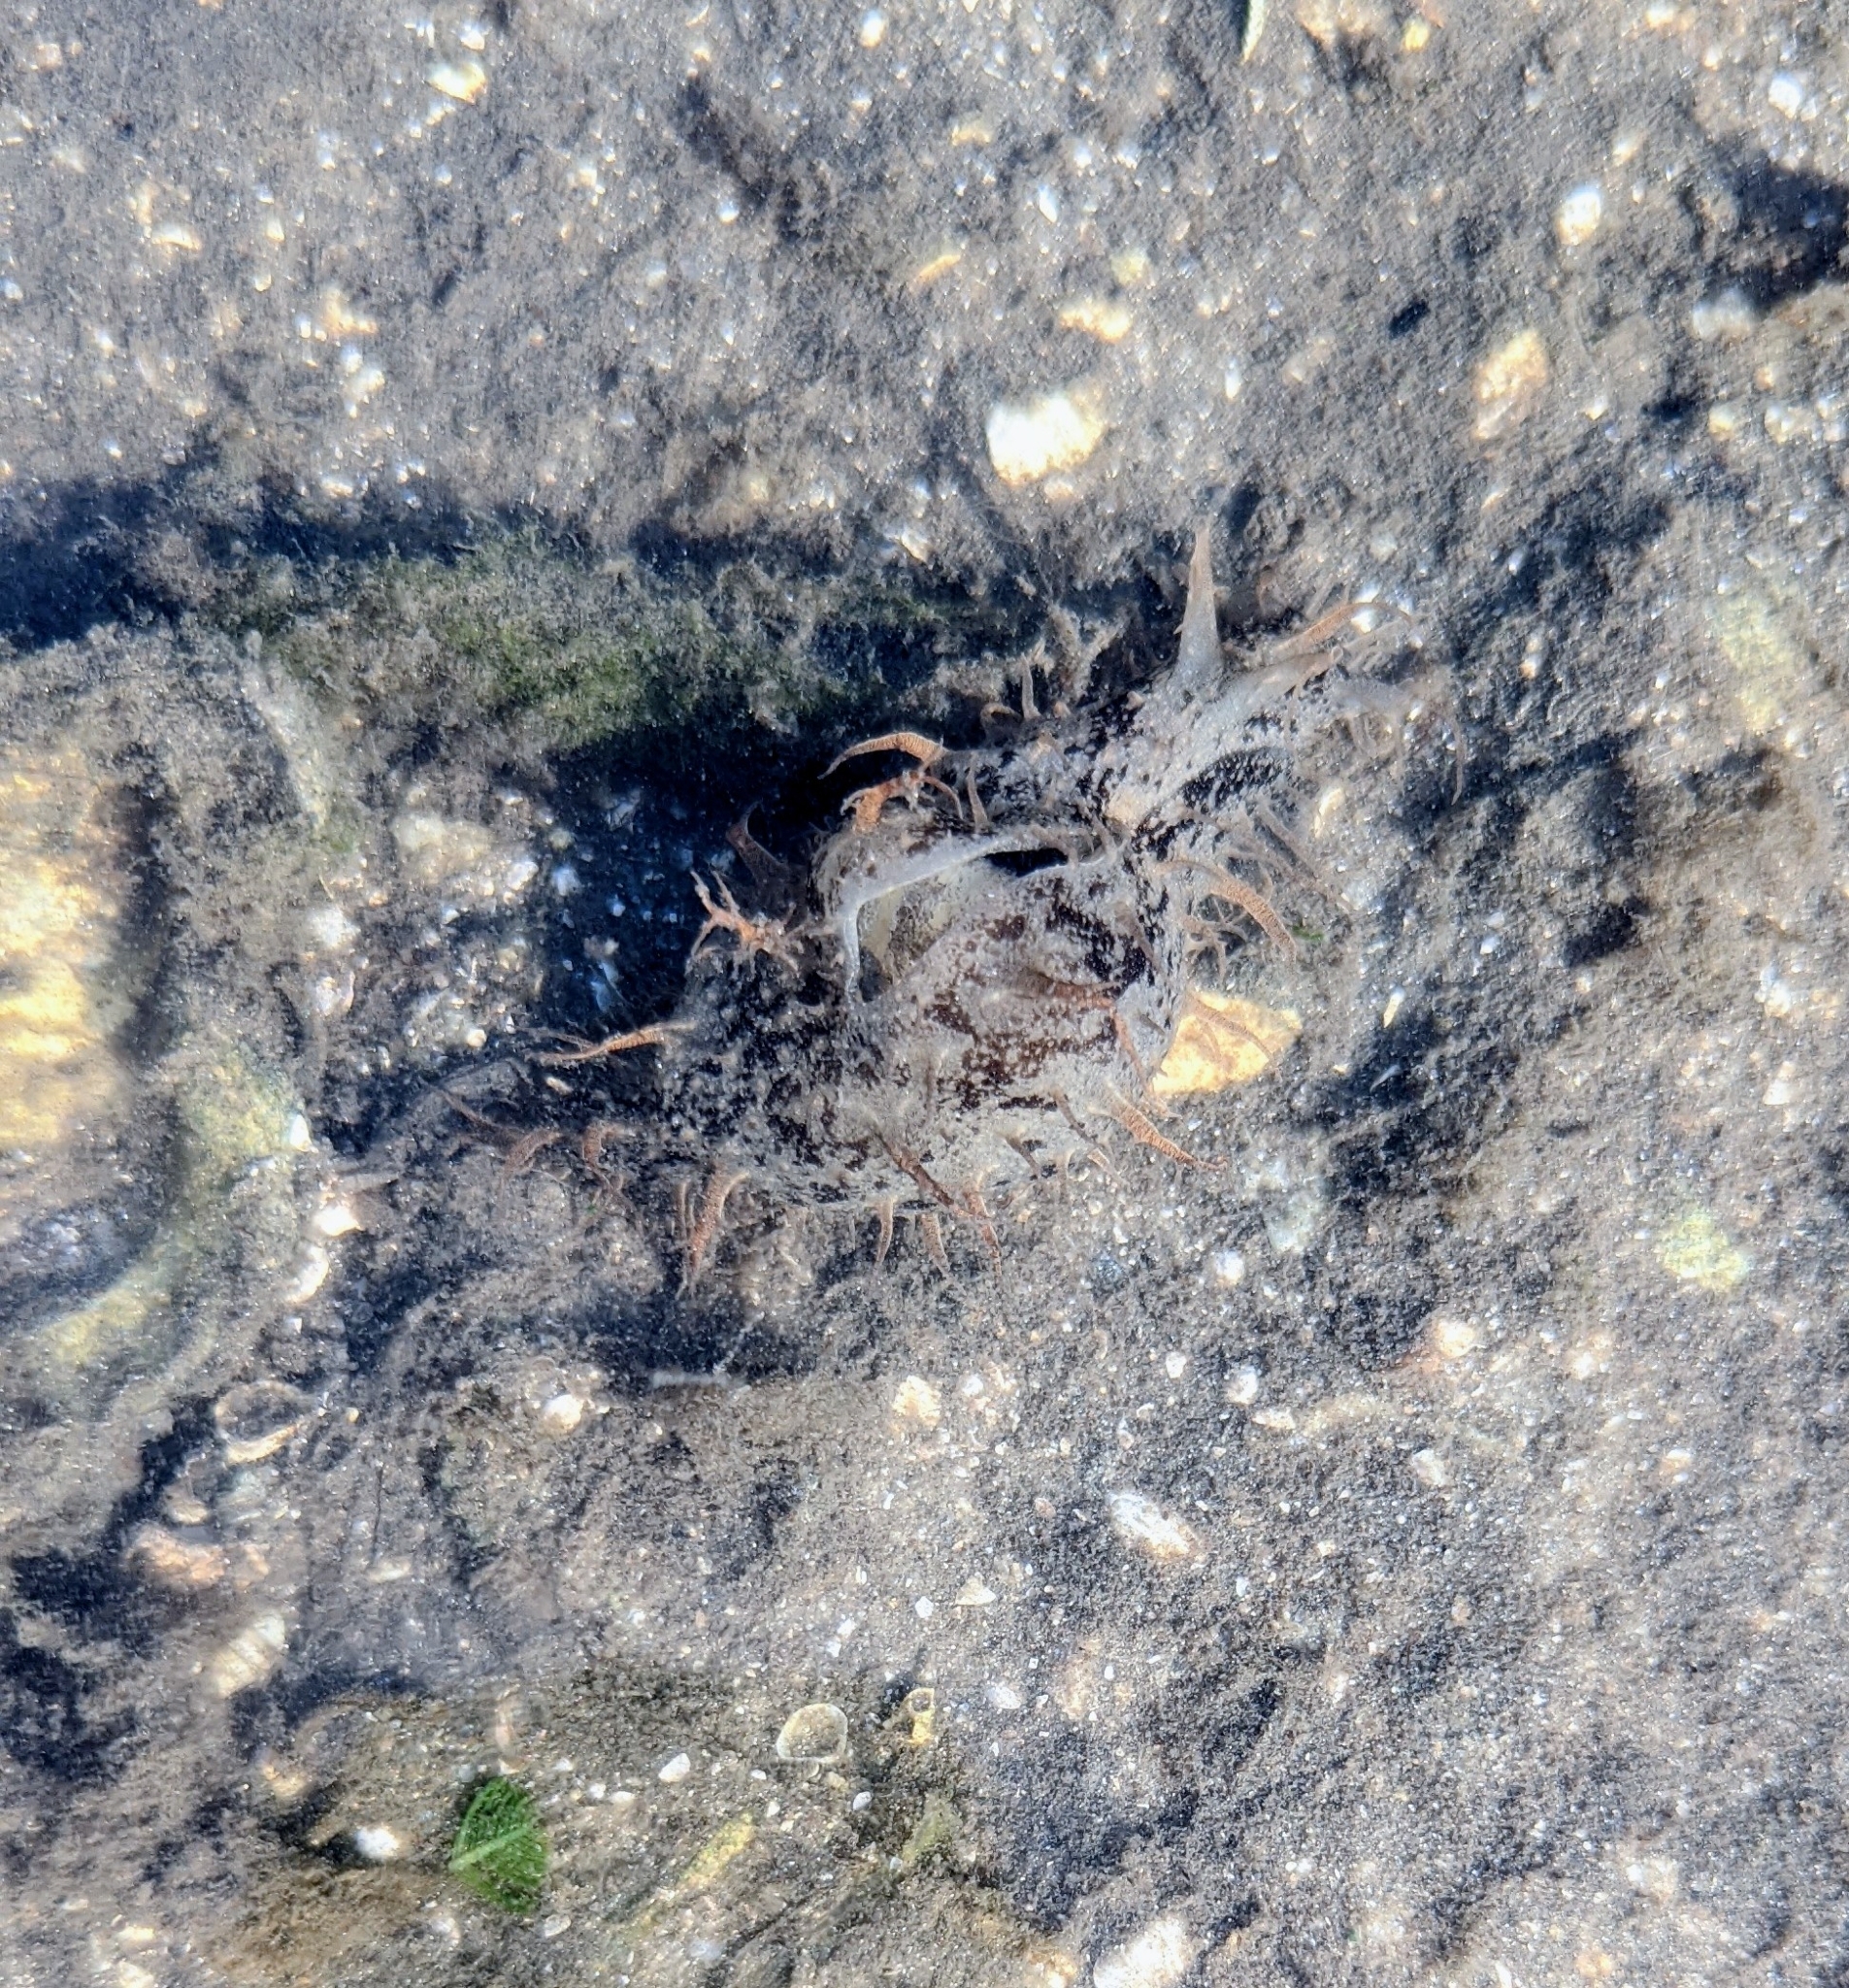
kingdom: Animalia
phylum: Mollusca
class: Gastropoda
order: Aplysiida
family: Aplysiidae
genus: Bursatella
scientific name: Bursatella leachii
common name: Shaggy sea hare
